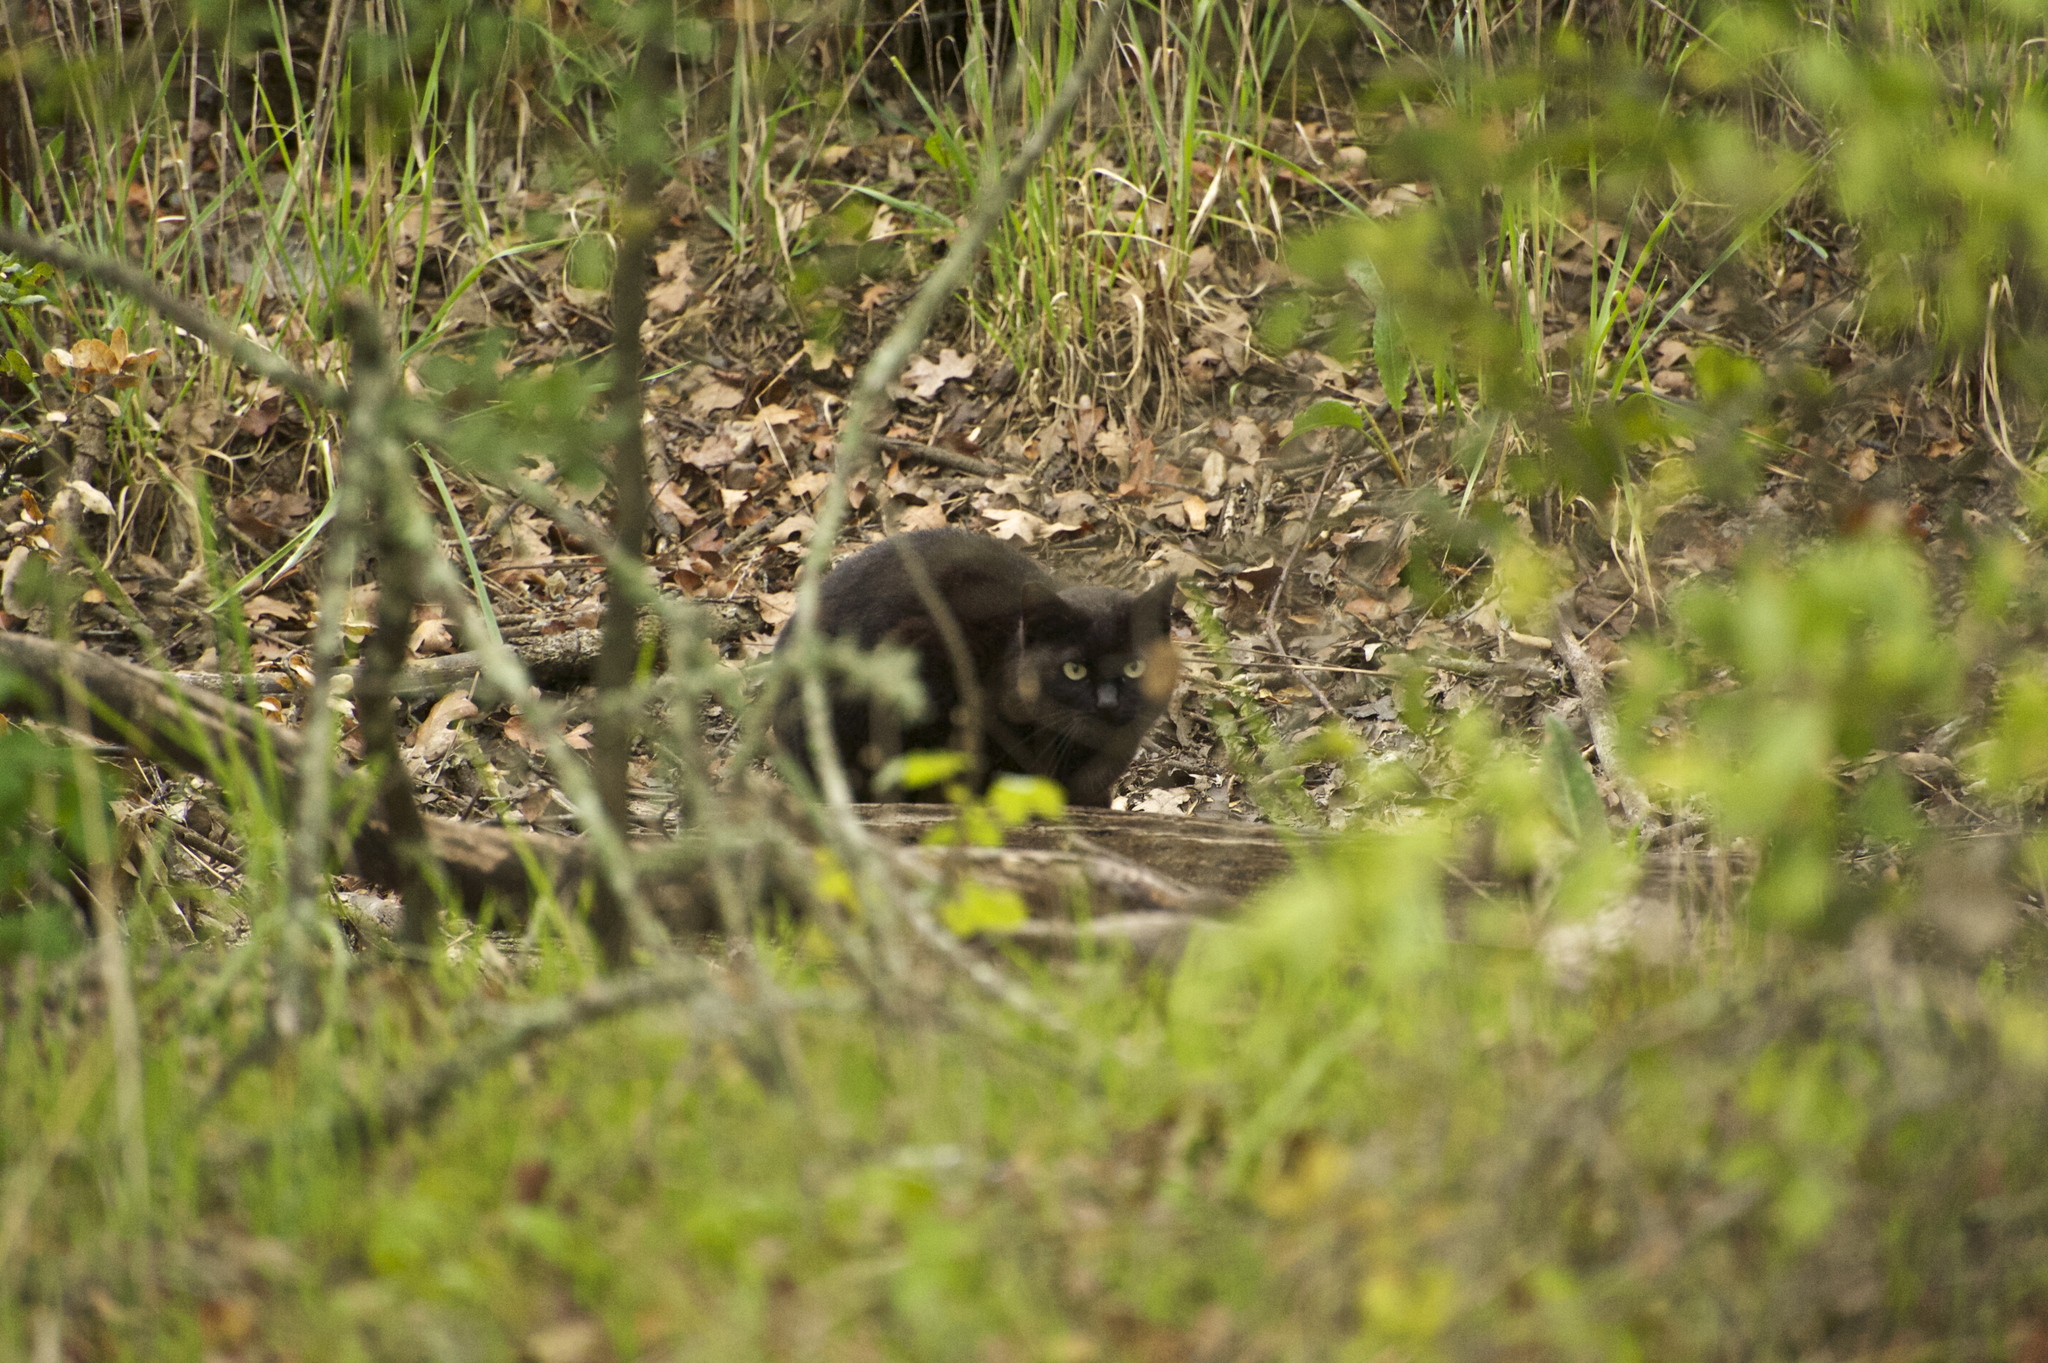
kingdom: Animalia
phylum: Chordata
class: Mammalia
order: Carnivora
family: Felidae
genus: Felis
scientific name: Felis catus
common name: Domestic cat
